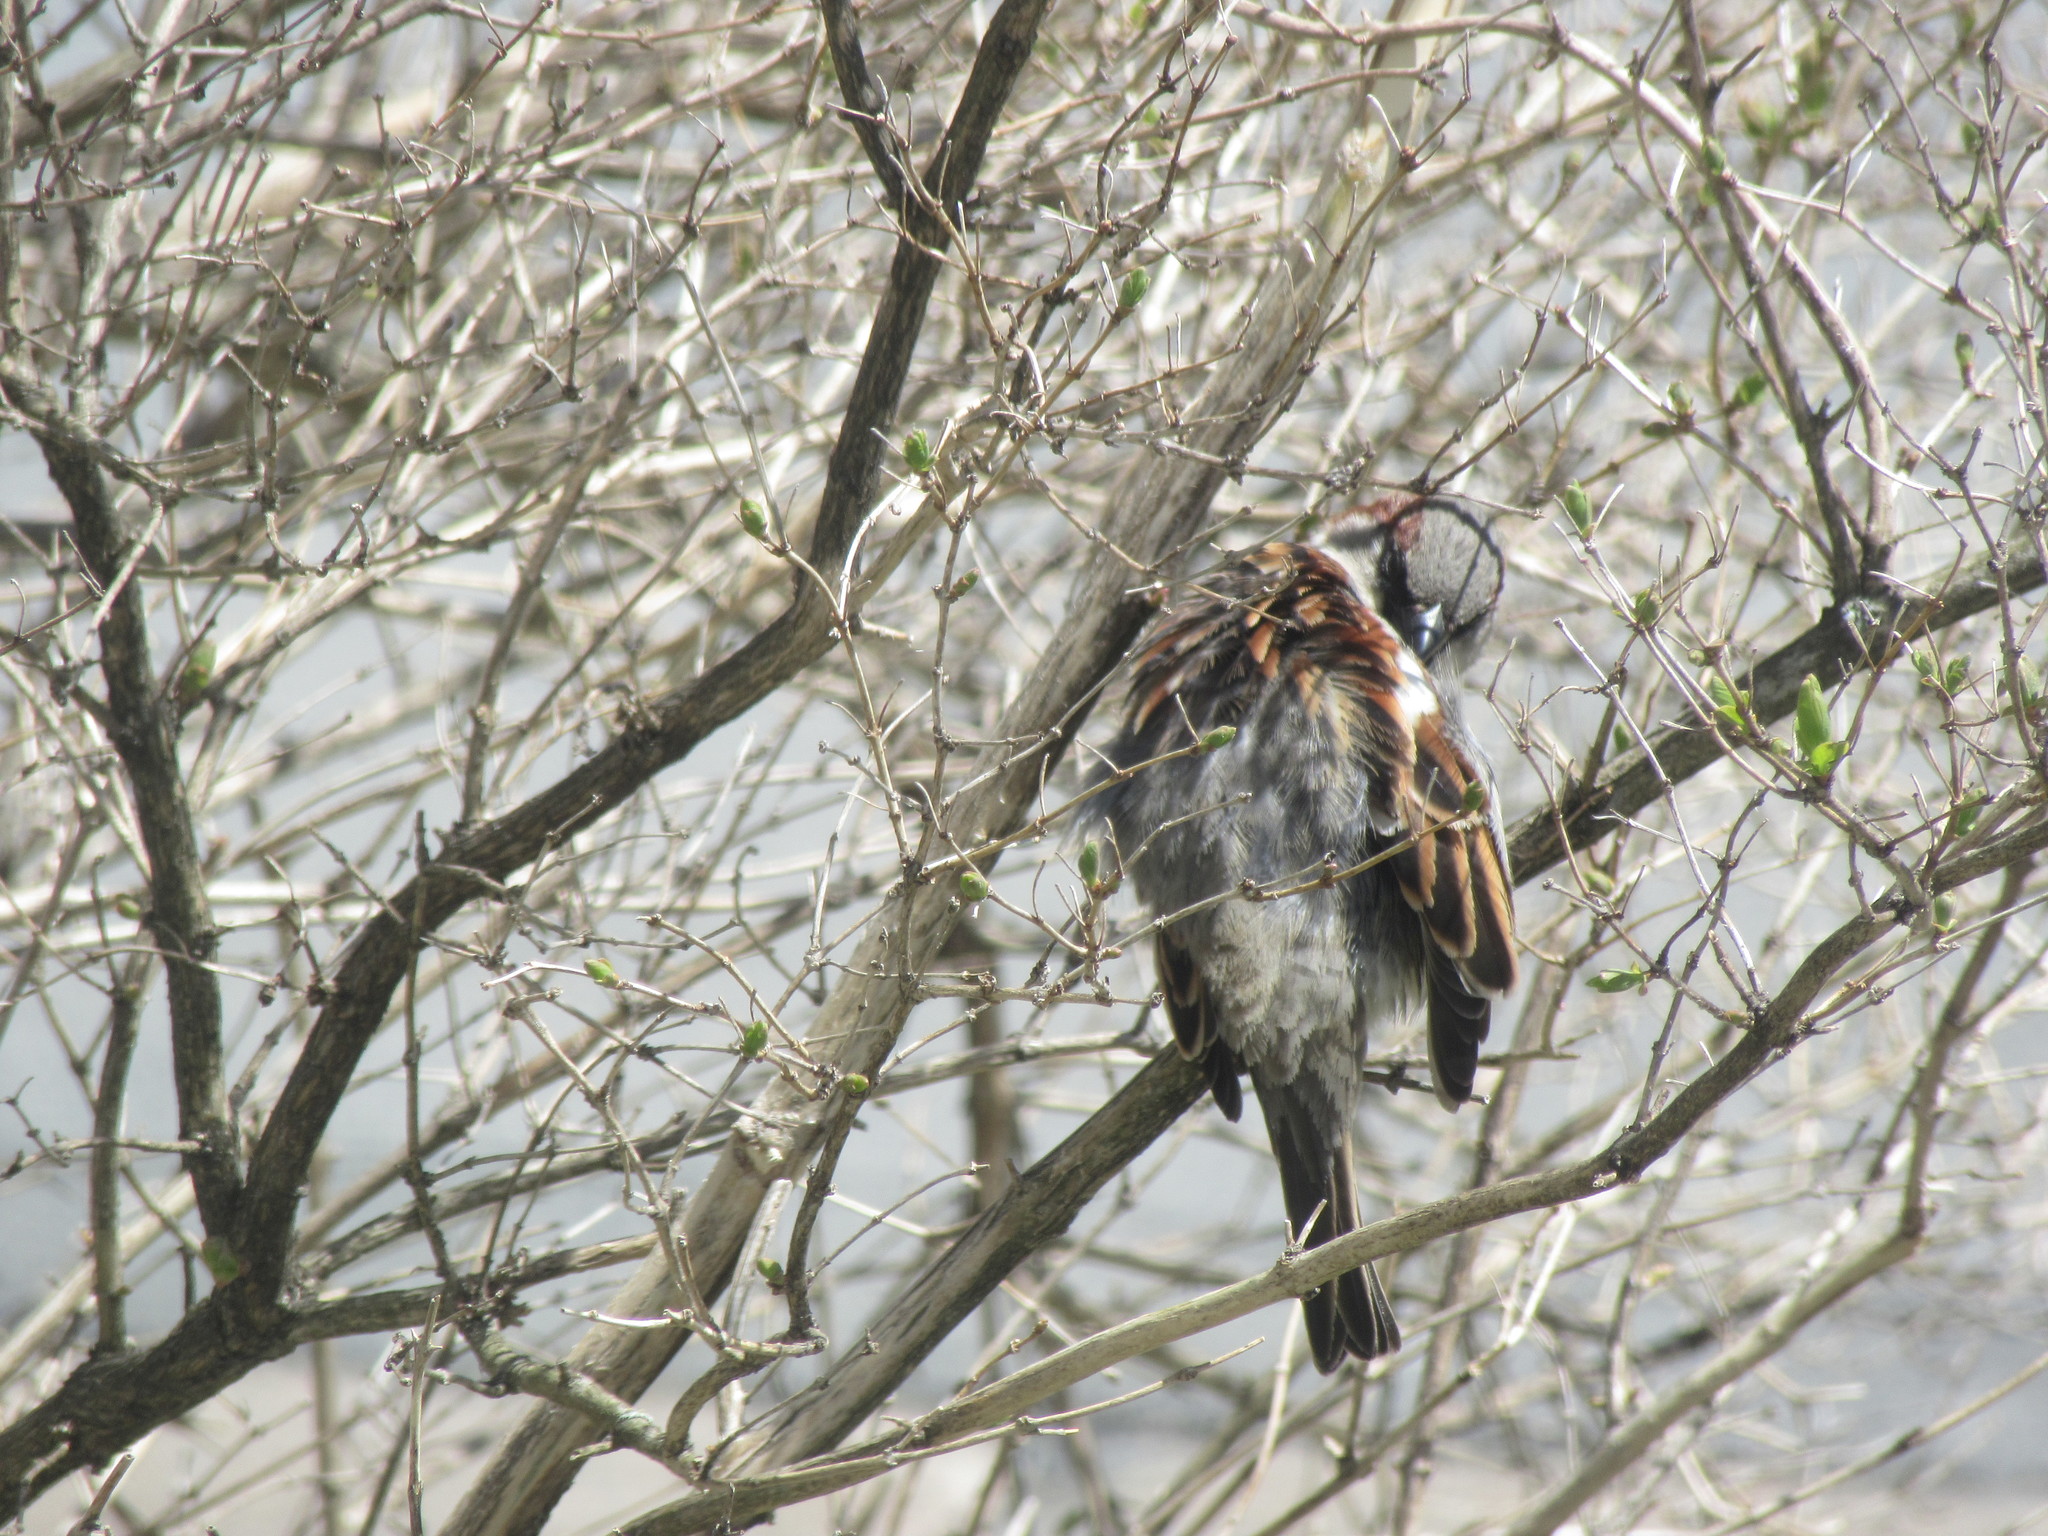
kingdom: Animalia
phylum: Chordata
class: Aves
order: Passeriformes
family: Passeridae
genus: Passer
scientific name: Passer domesticus
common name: House sparrow
